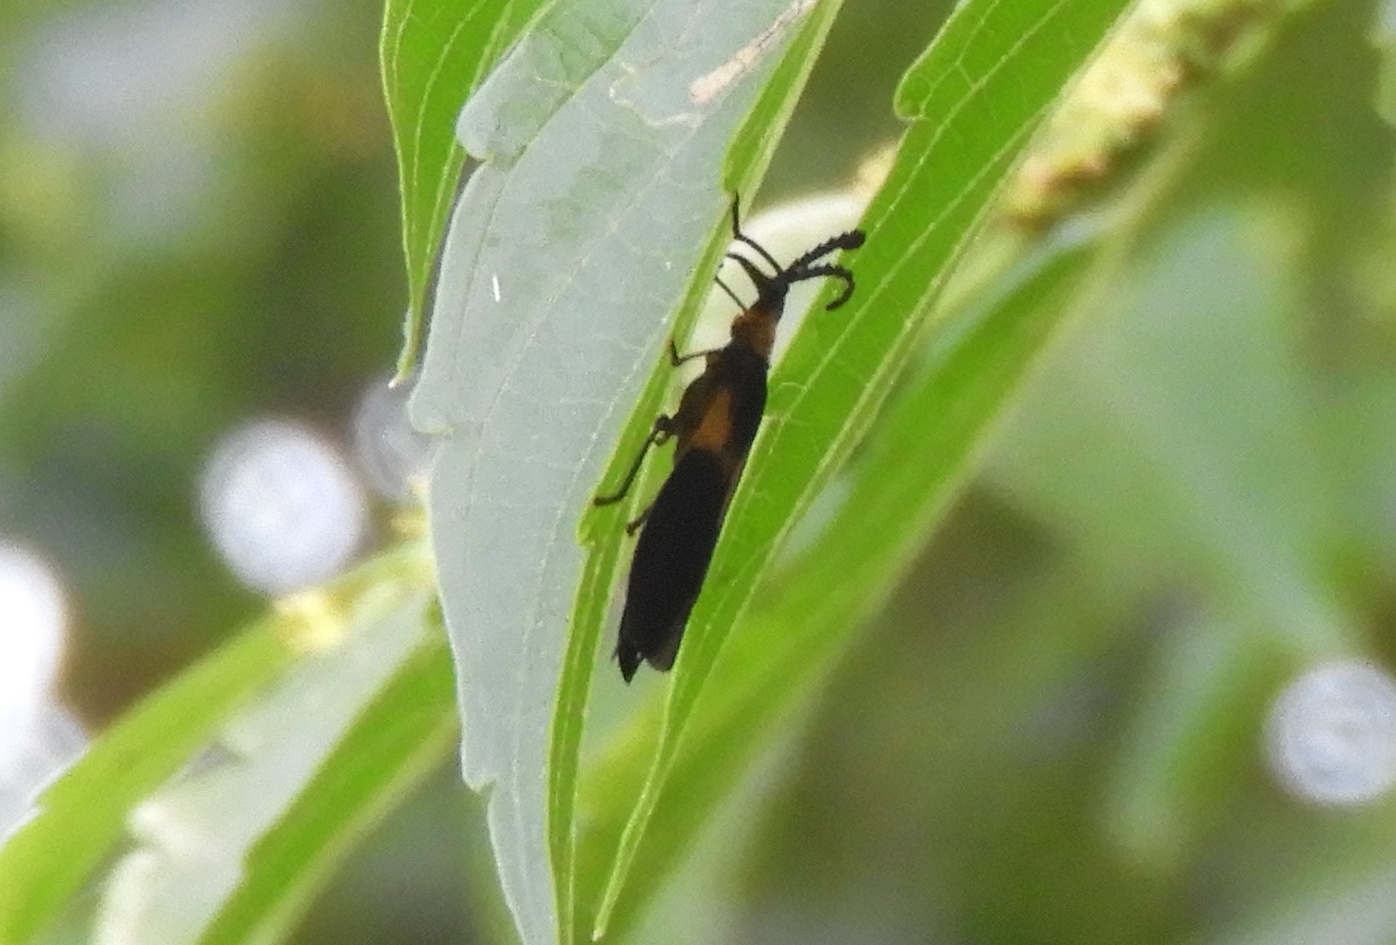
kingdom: Animalia
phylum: Arthropoda
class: Insecta
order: Coleoptera
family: Lycidae
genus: Lycus
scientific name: Lycus
